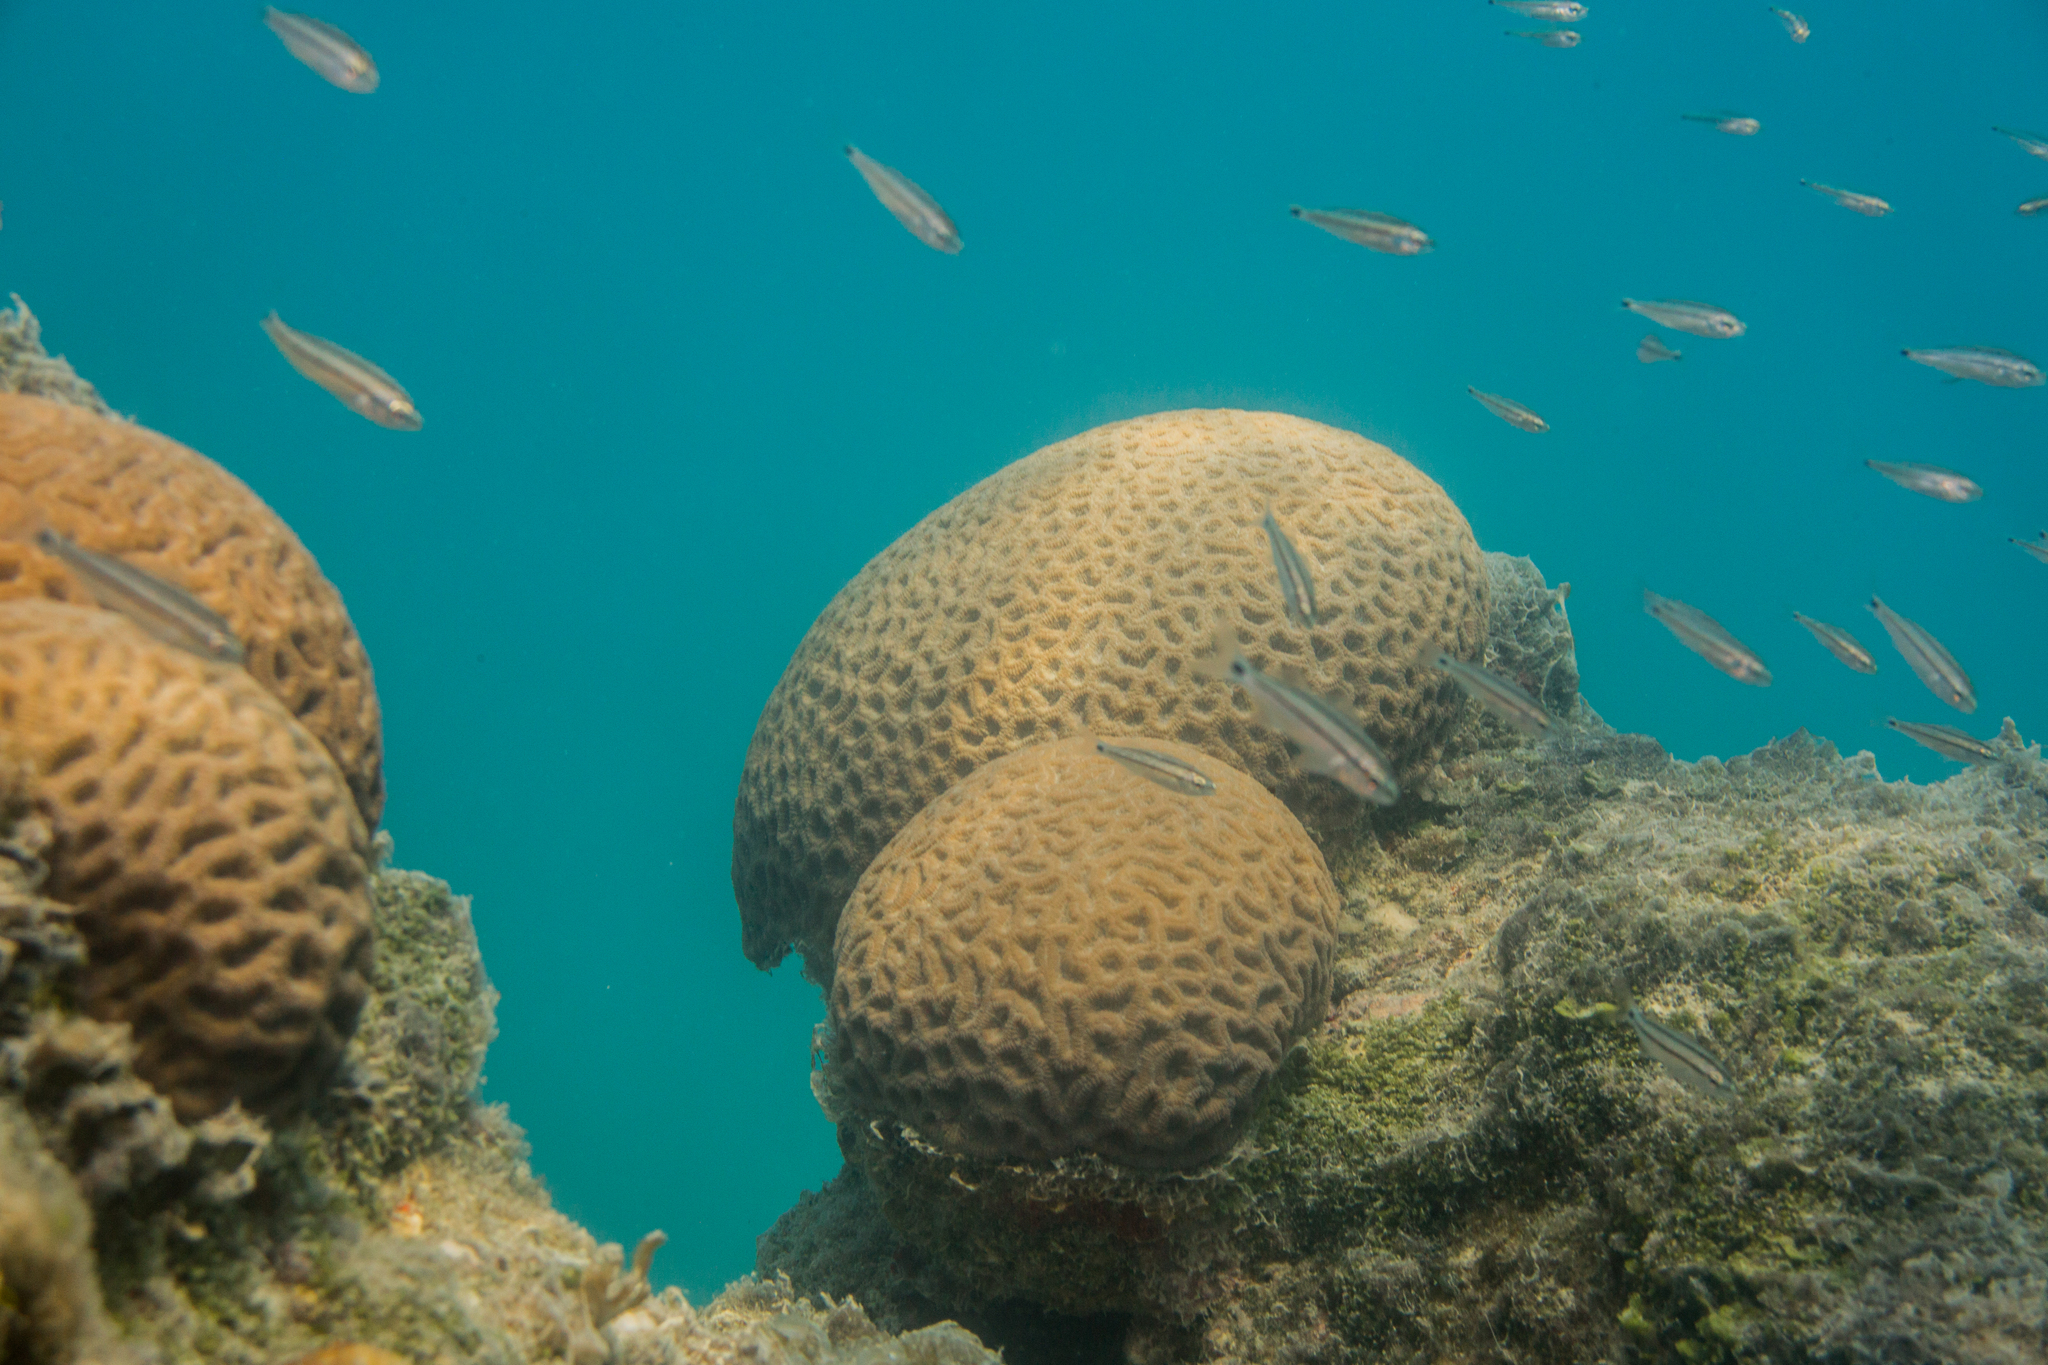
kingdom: Animalia
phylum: Cnidaria
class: Anthozoa
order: Scleractinia
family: Faviidae
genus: Mussismilia
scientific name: Mussismilia hispida
